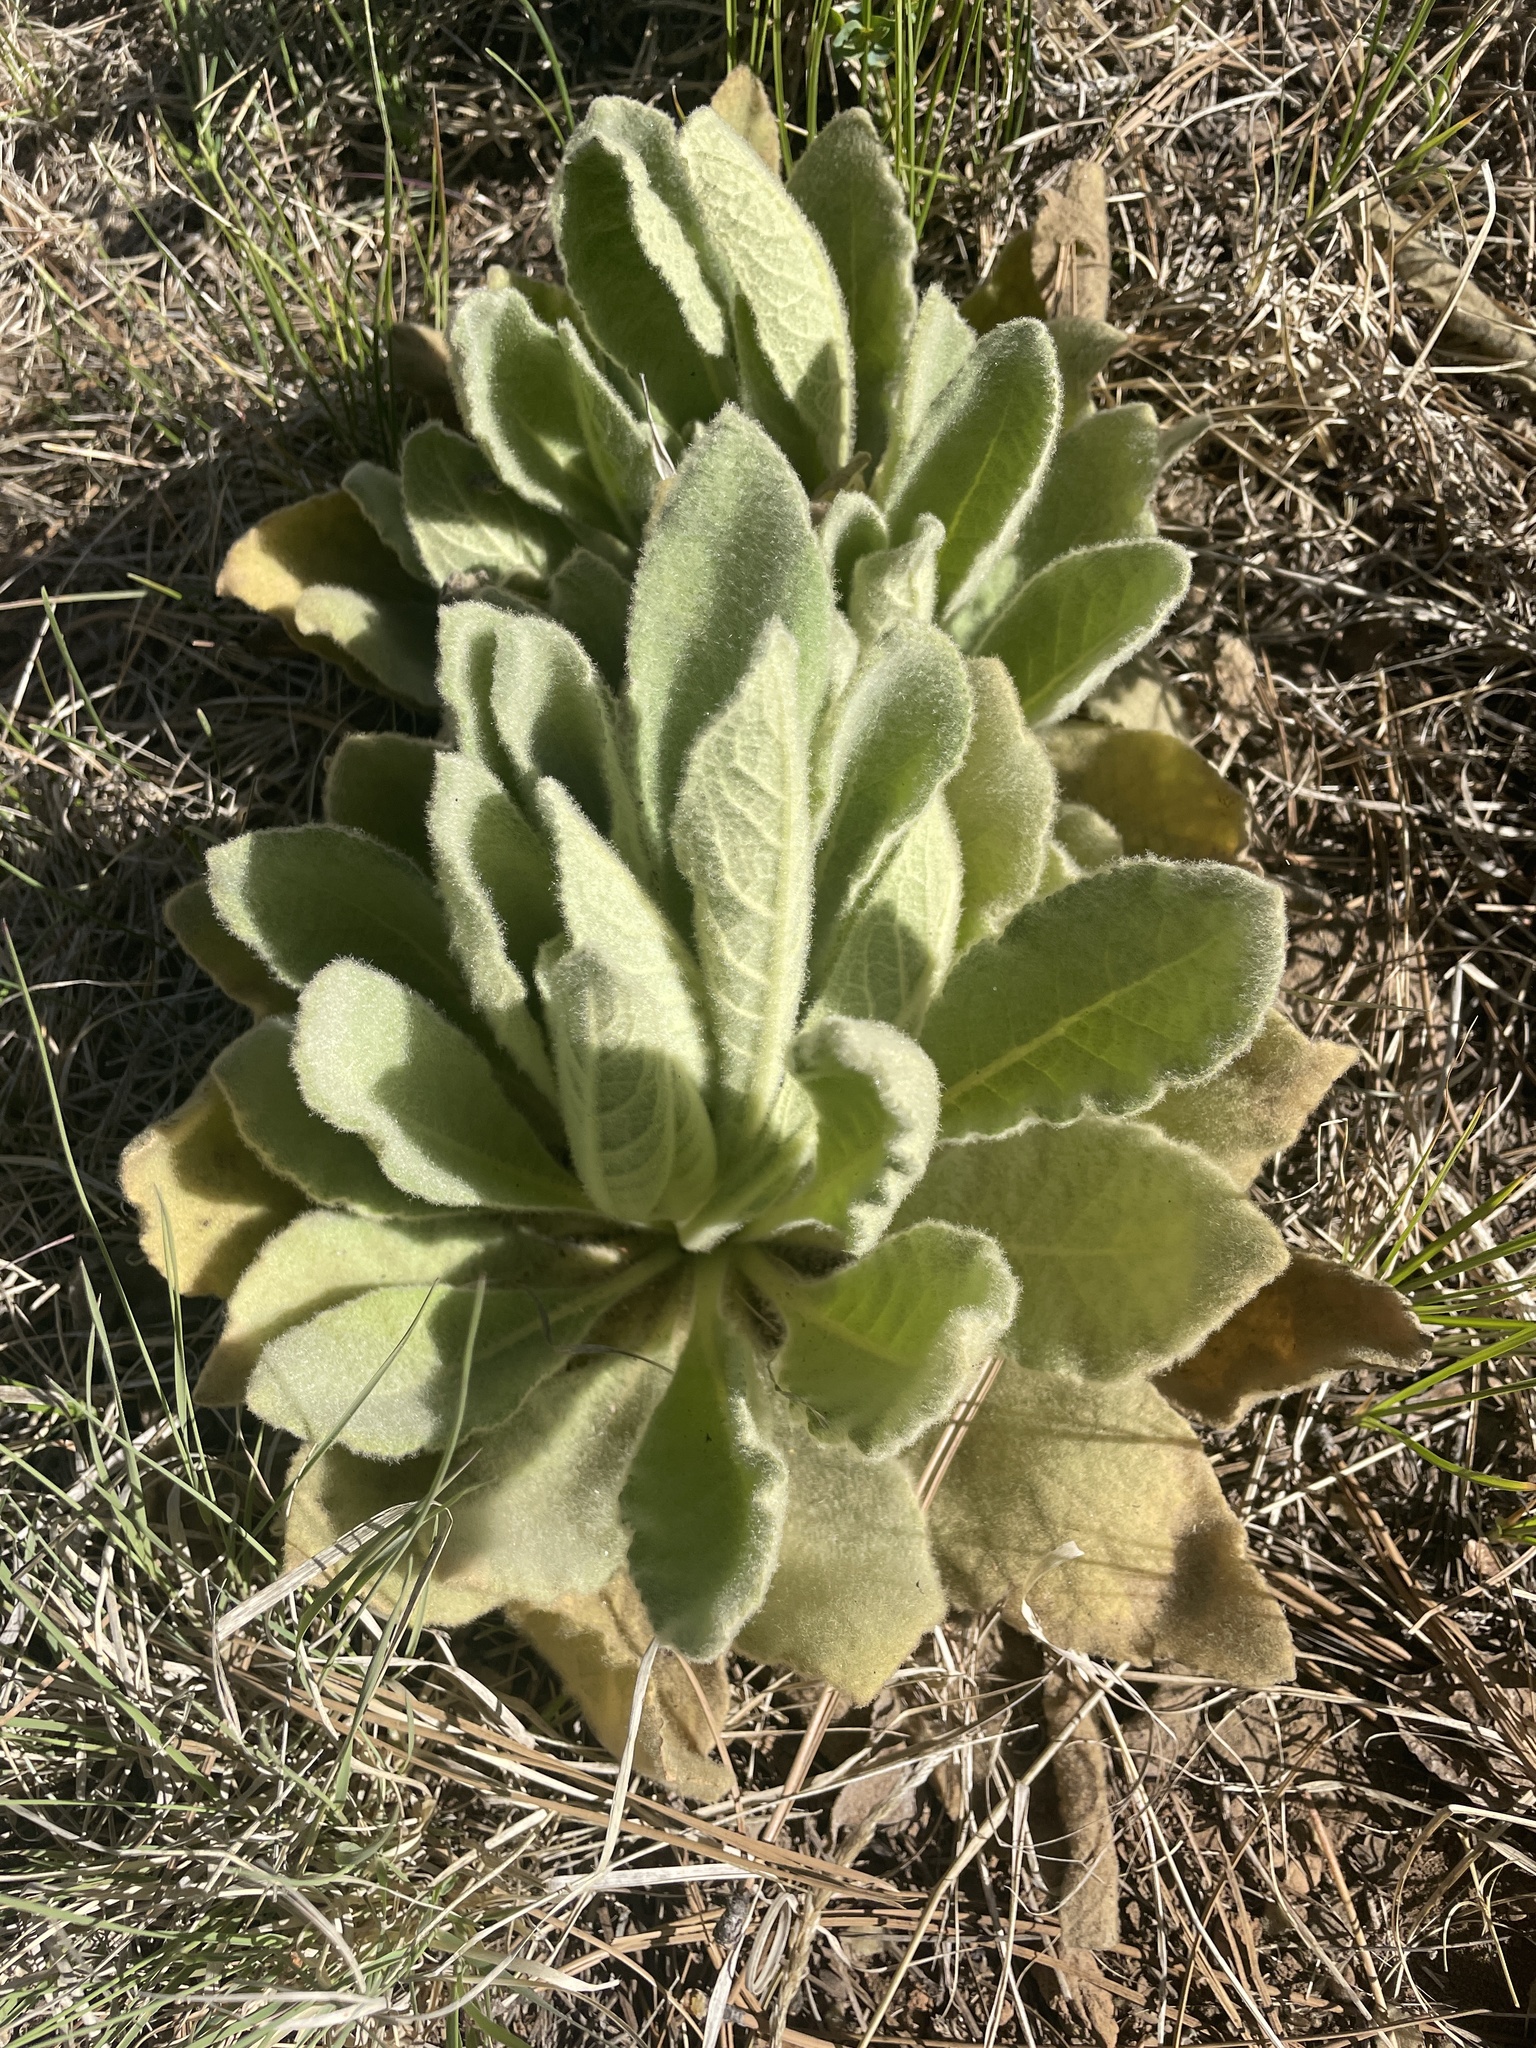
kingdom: Plantae
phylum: Tracheophyta
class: Magnoliopsida
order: Lamiales
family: Scrophulariaceae
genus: Verbascum
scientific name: Verbascum thapsus
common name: Common mullein
